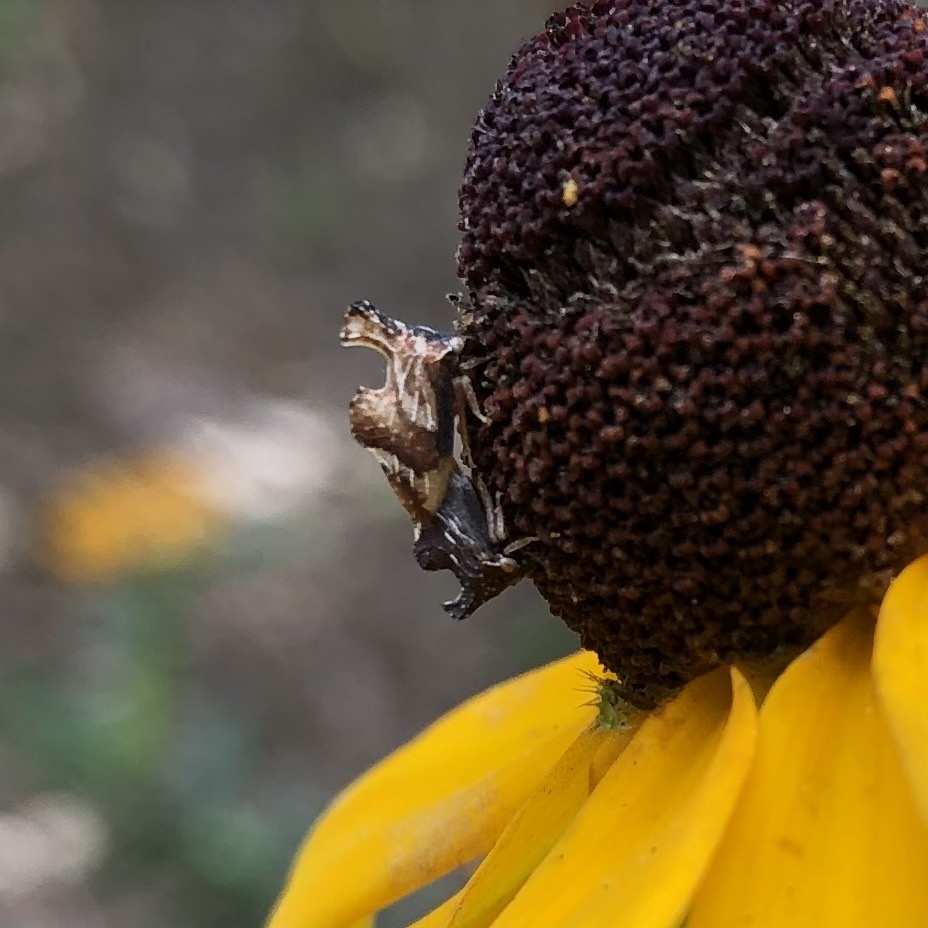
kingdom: Animalia
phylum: Arthropoda
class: Insecta
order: Hemiptera
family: Membracidae
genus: Entylia
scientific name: Entylia carinata
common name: Keeled treehopper
